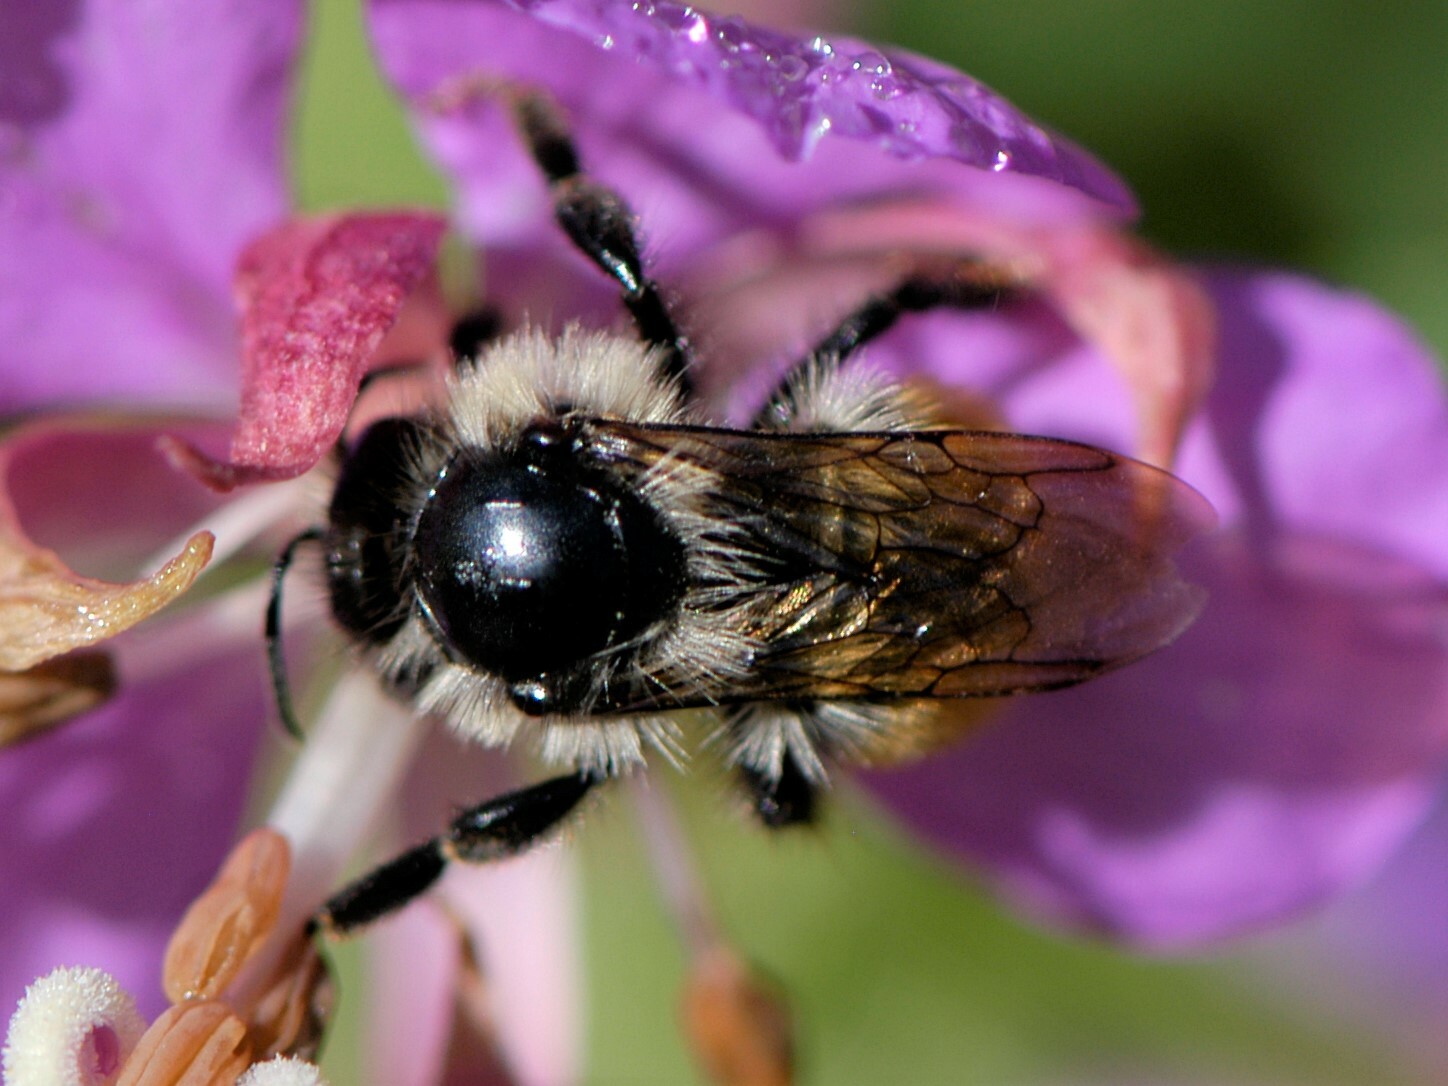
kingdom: Animalia
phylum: Arthropoda
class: Insecta
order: Hymenoptera
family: Apidae
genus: Pyrobombus
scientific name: Pyrobombus
